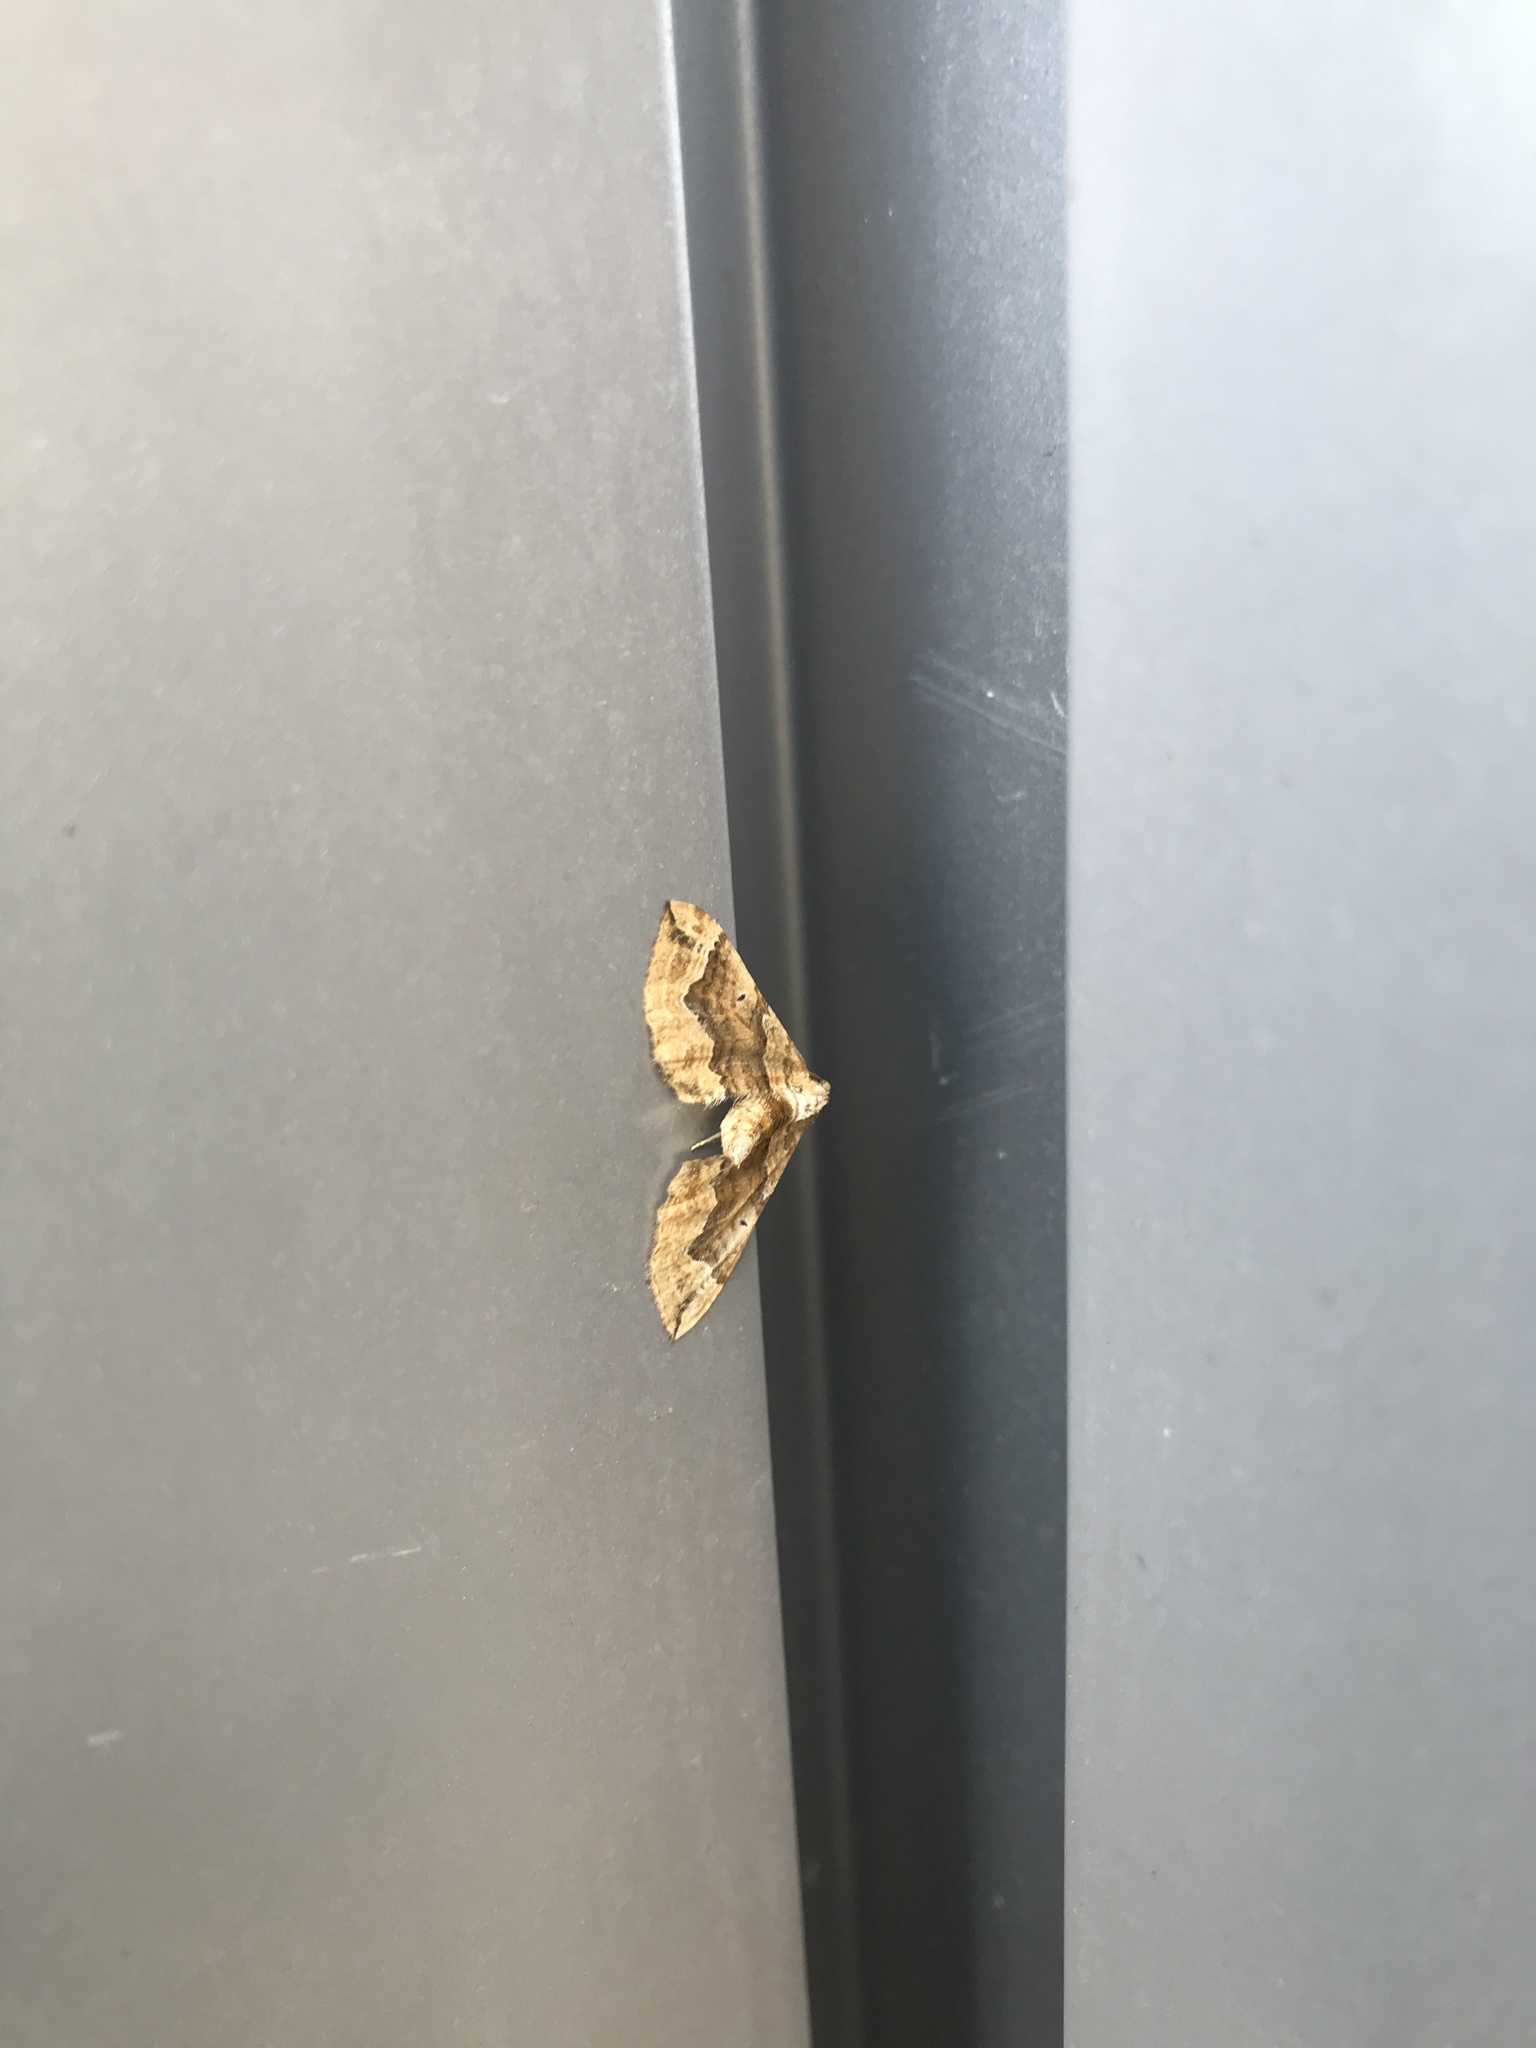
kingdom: Animalia
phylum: Arthropoda
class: Insecta
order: Lepidoptera
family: Geometridae
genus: Pelurga
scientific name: Pelurga comitata
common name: Dark spinach
